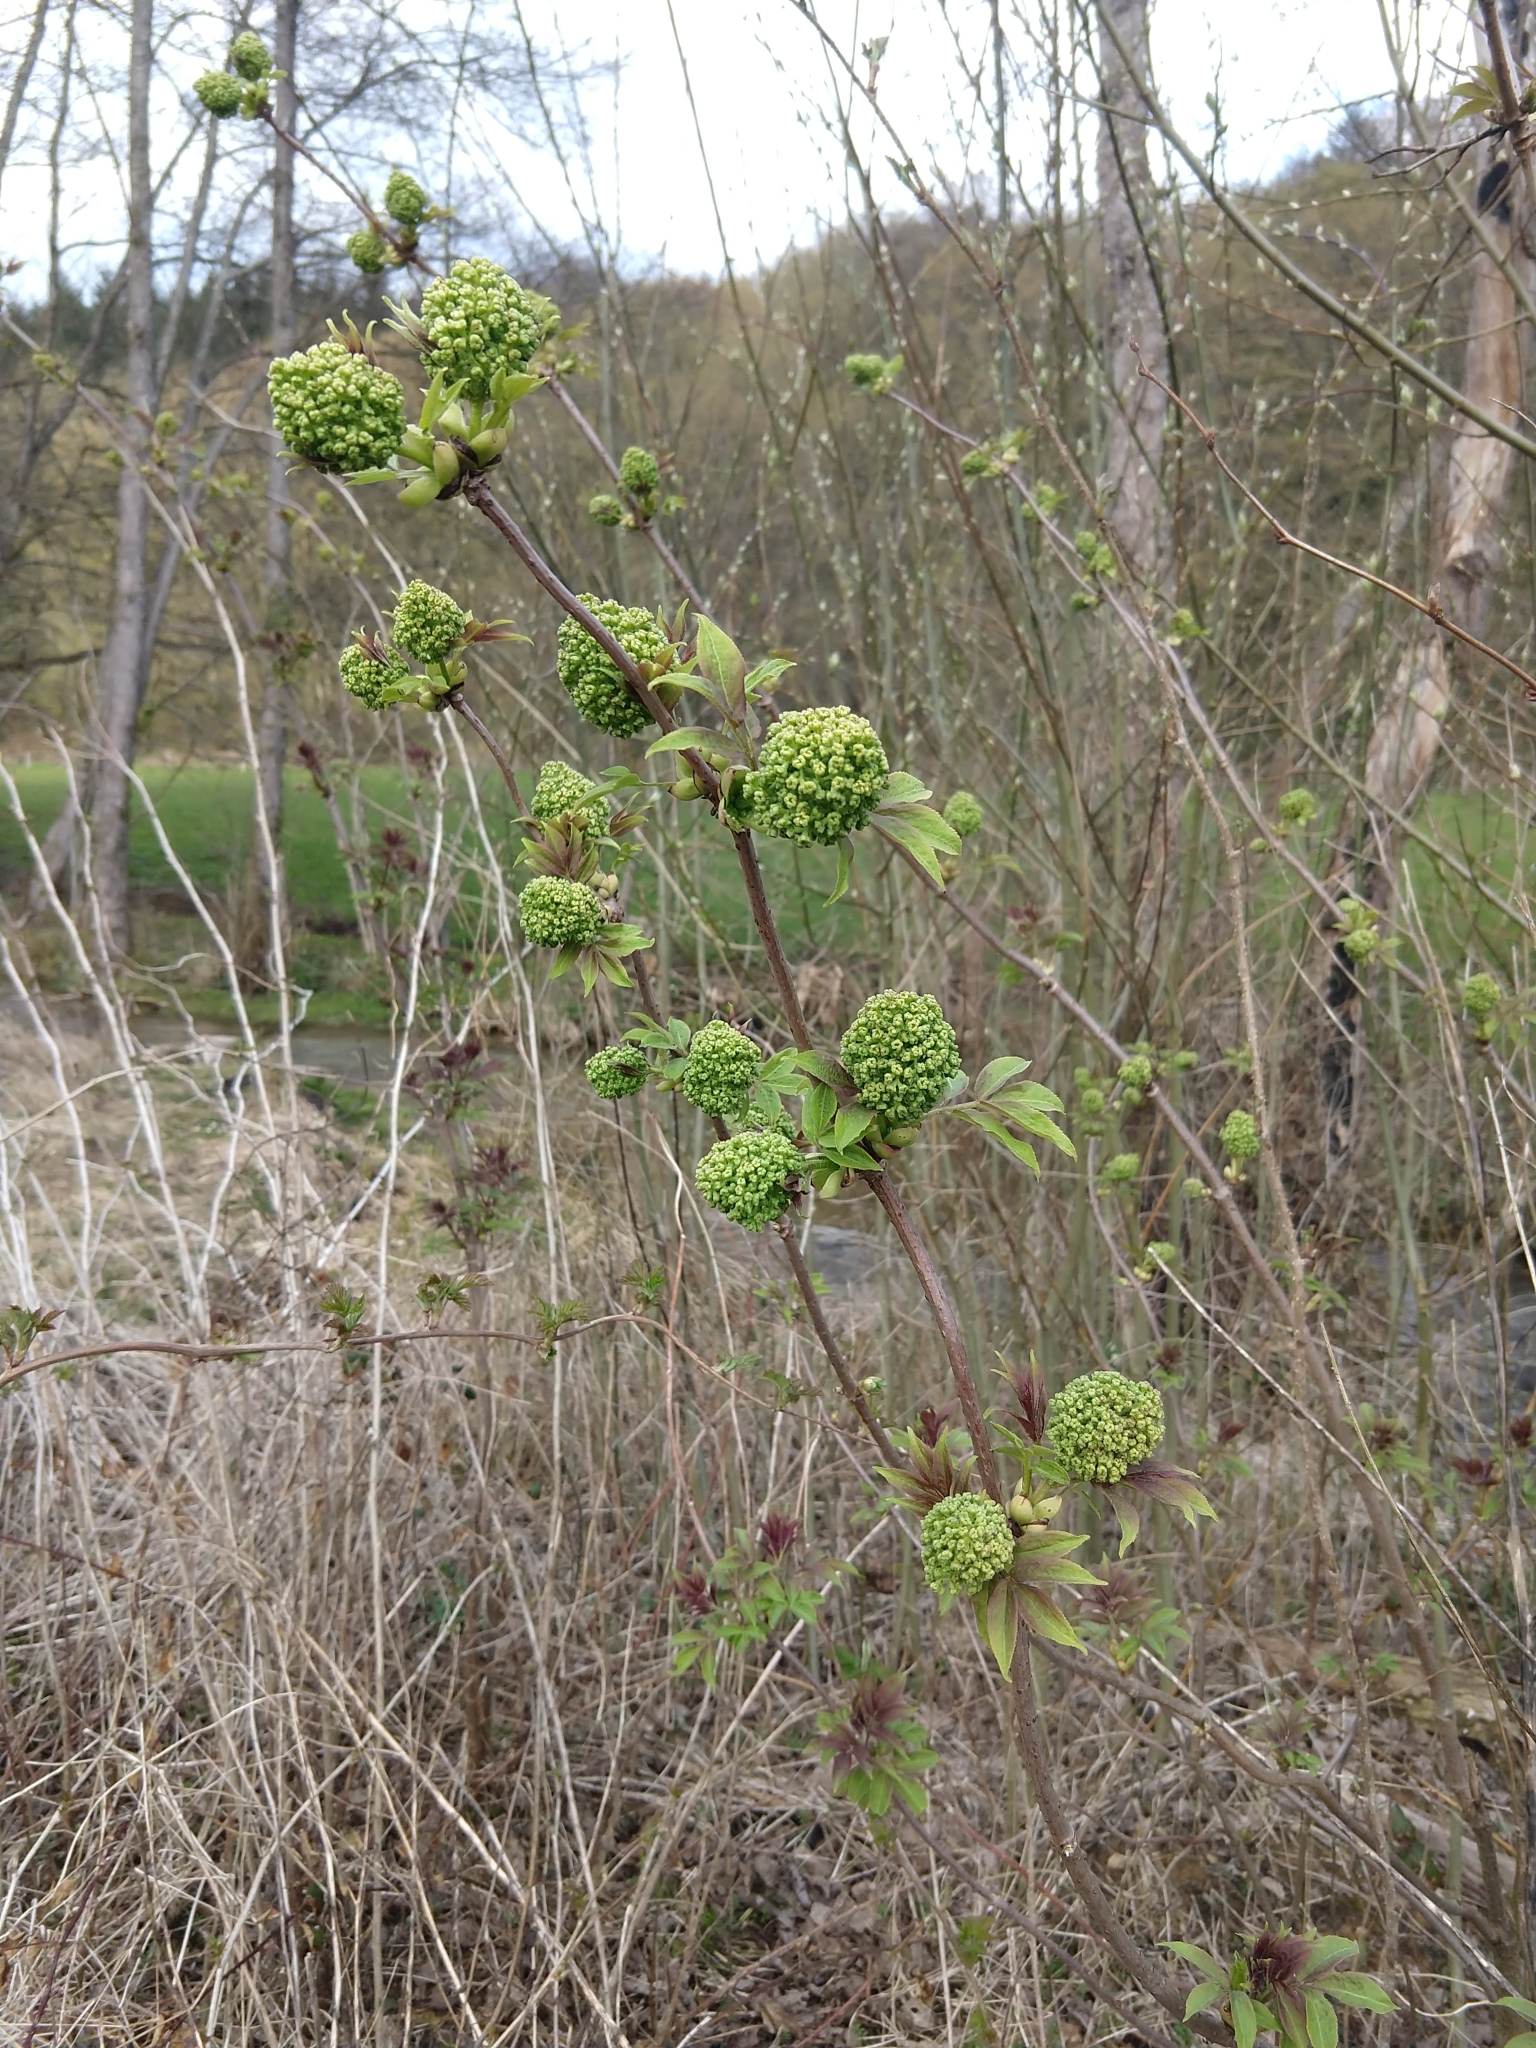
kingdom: Plantae
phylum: Tracheophyta
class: Magnoliopsida
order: Dipsacales
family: Viburnaceae
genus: Sambucus
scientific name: Sambucus racemosa
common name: Red-berried elder
